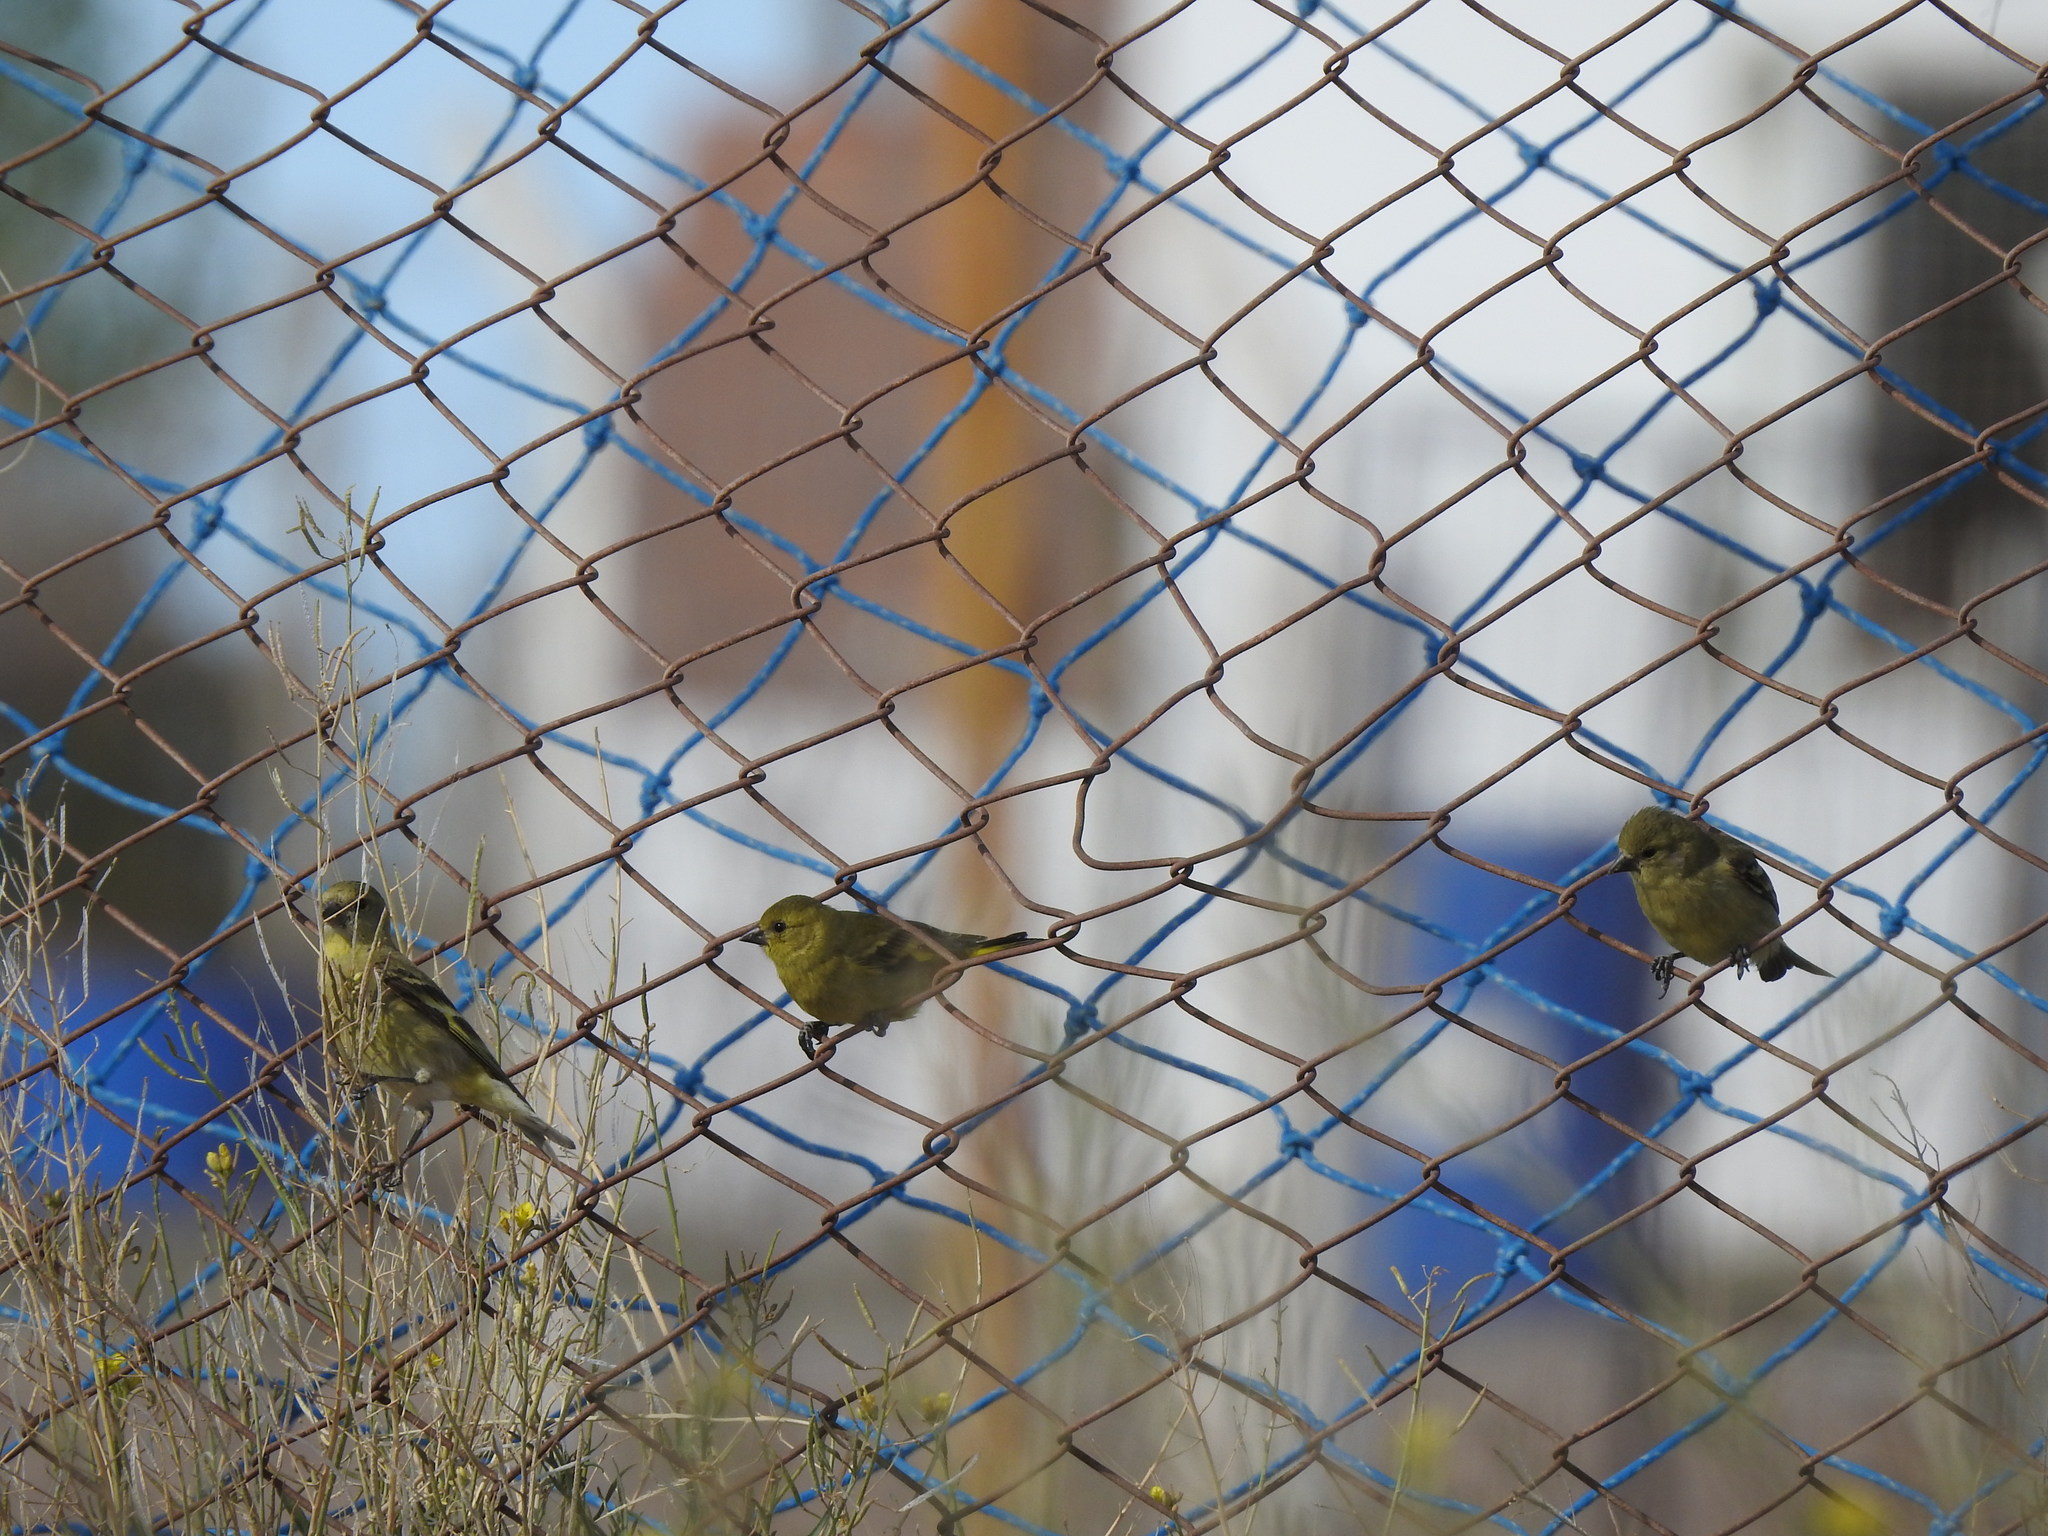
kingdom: Animalia
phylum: Chordata
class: Aves
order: Passeriformes
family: Fringillidae
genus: Spinus
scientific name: Spinus magellanicus
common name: Hooded siskin
